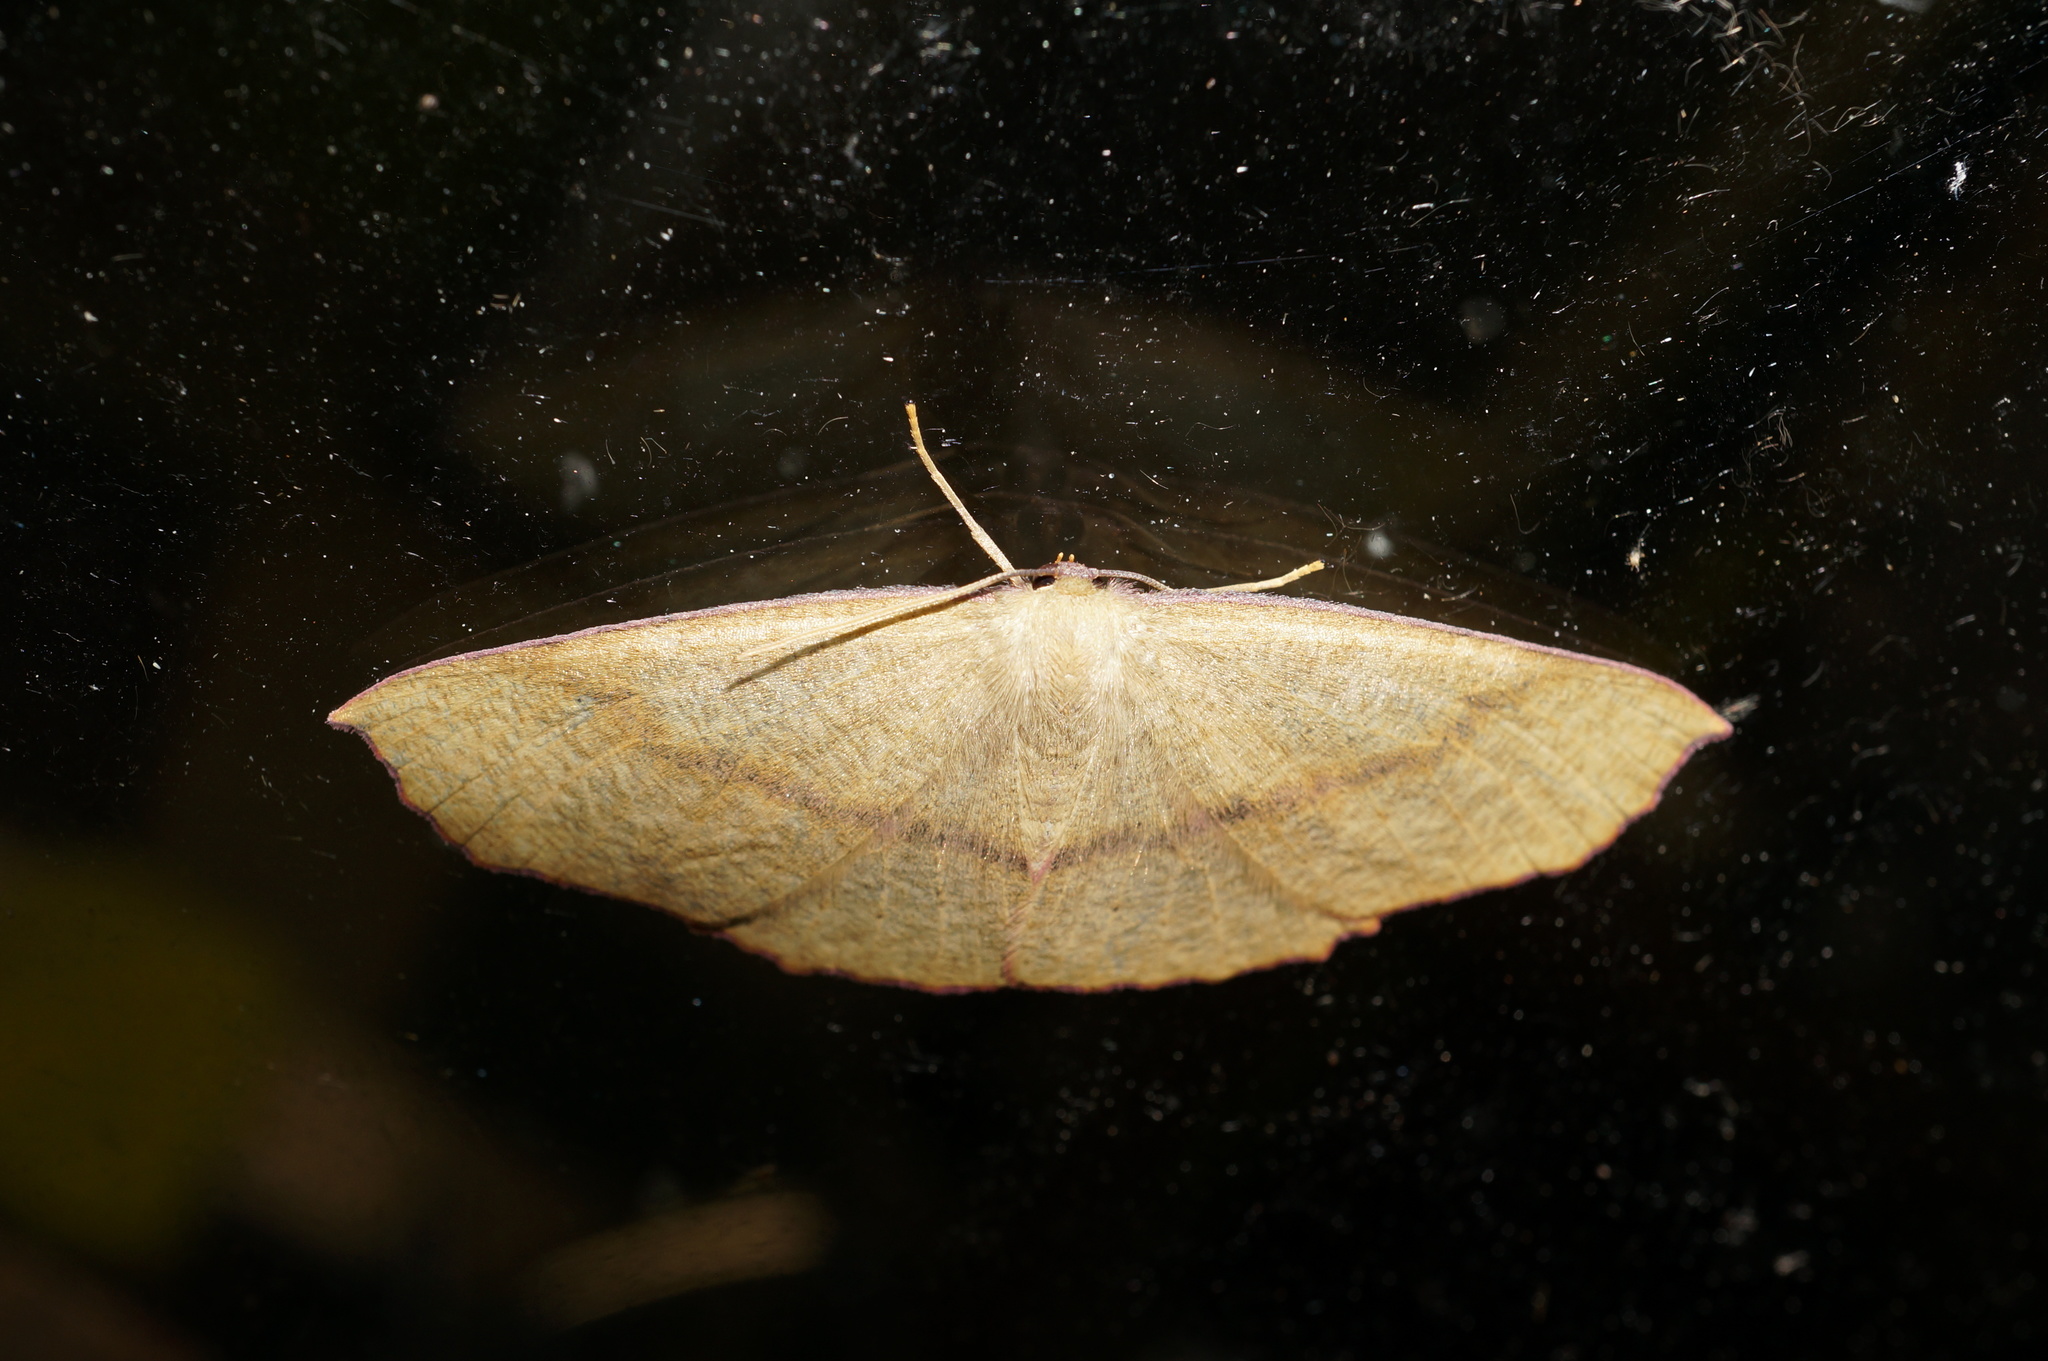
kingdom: Animalia
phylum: Arthropoda
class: Insecta
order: Lepidoptera
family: Geometridae
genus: Xyridacma
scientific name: Xyridacma alectoraria
